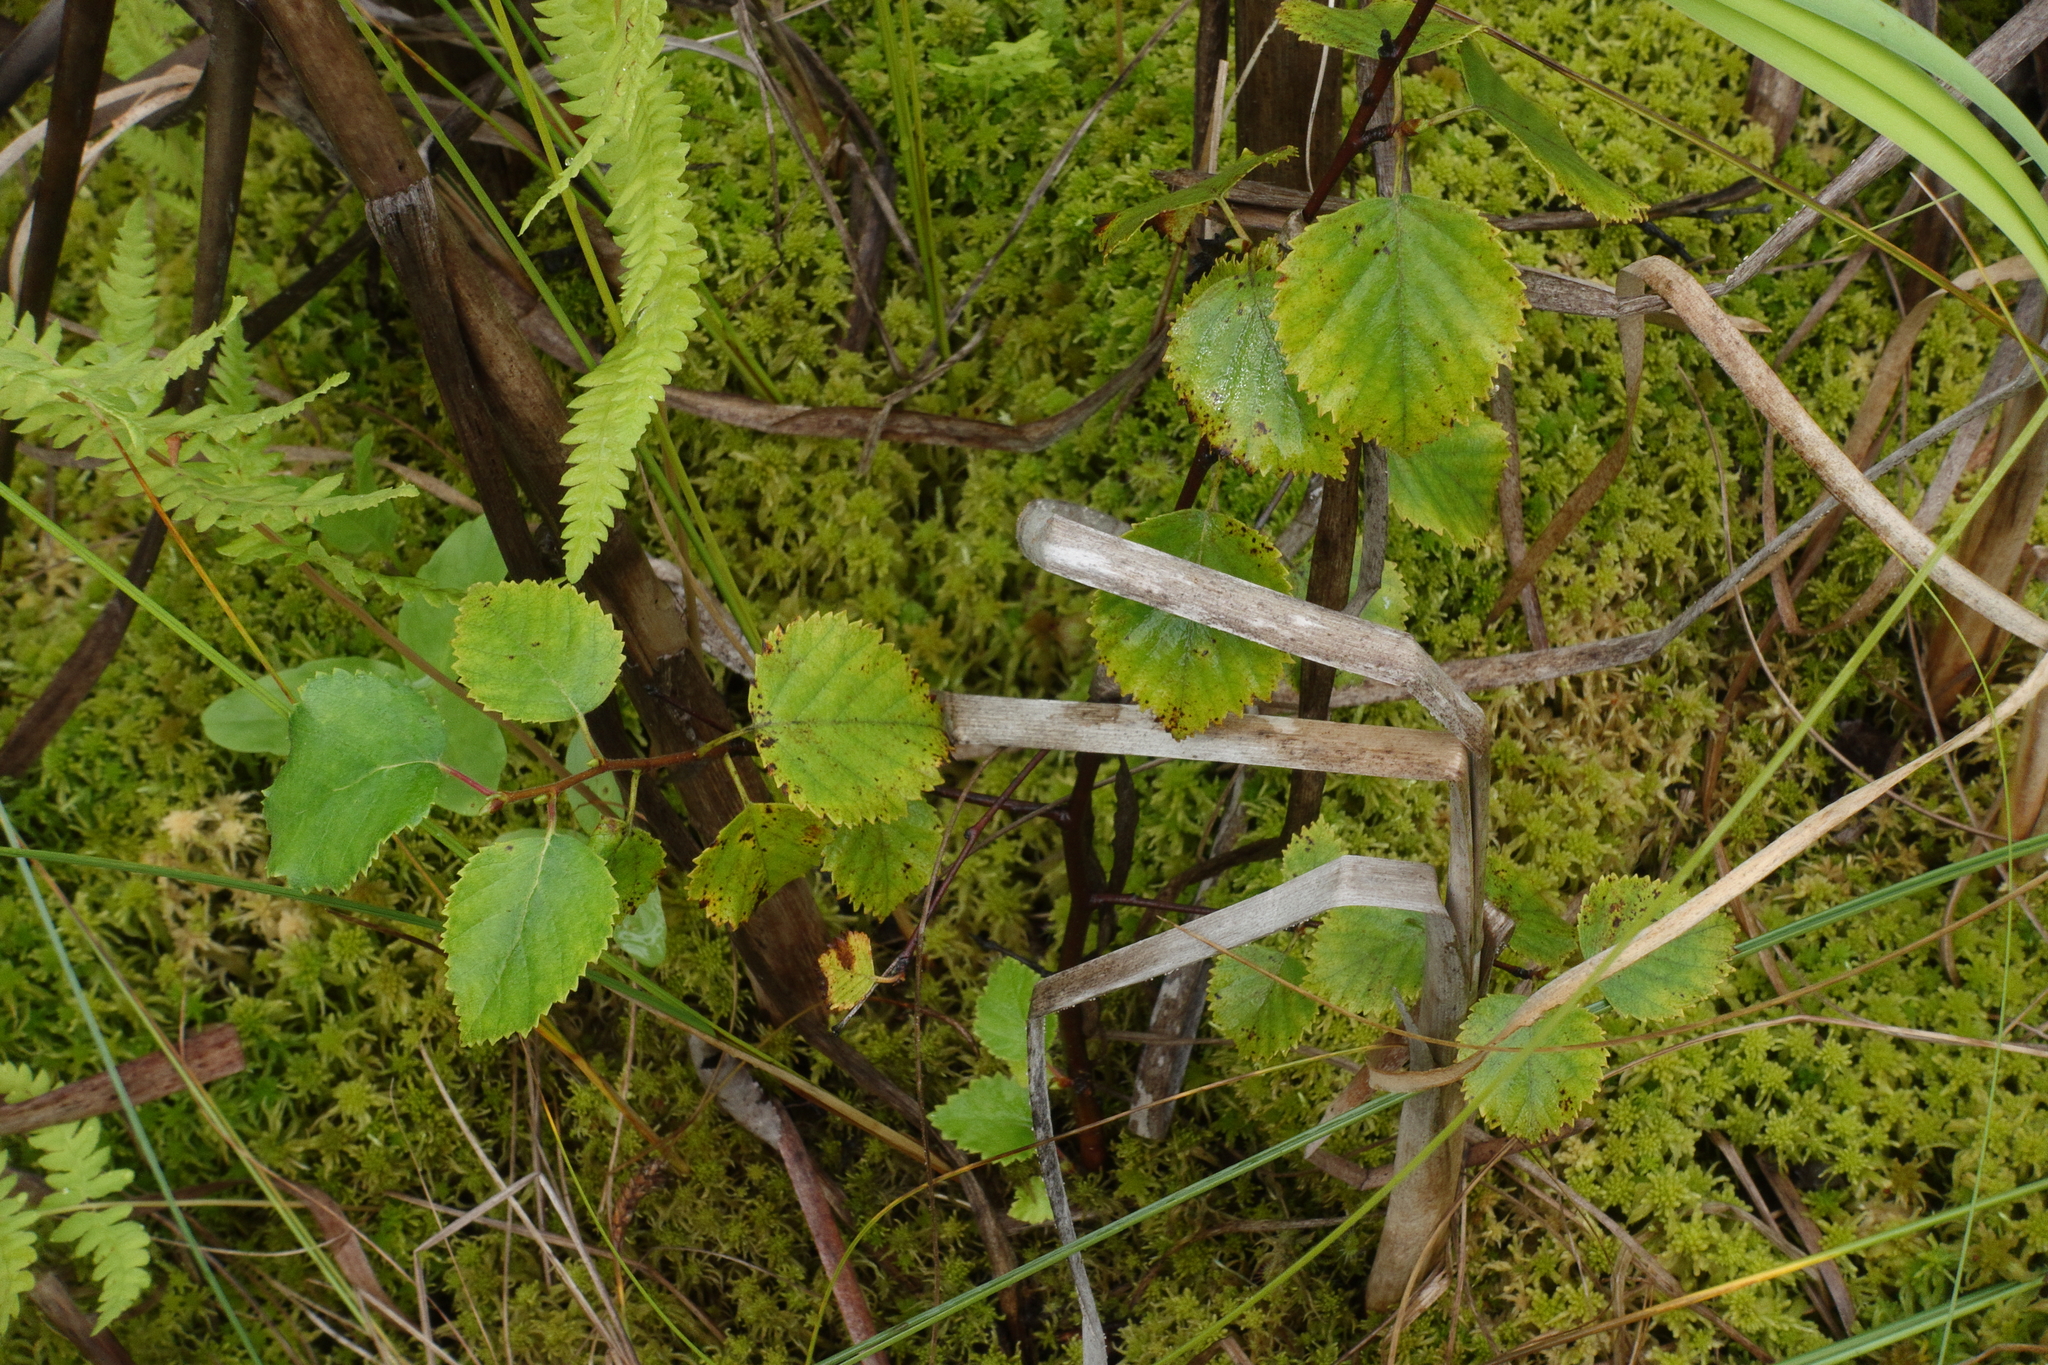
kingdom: Plantae
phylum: Tracheophyta
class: Magnoliopsida
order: Fagales
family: Betulaceae
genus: Betula
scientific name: Betula pubescens
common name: Downy birch
